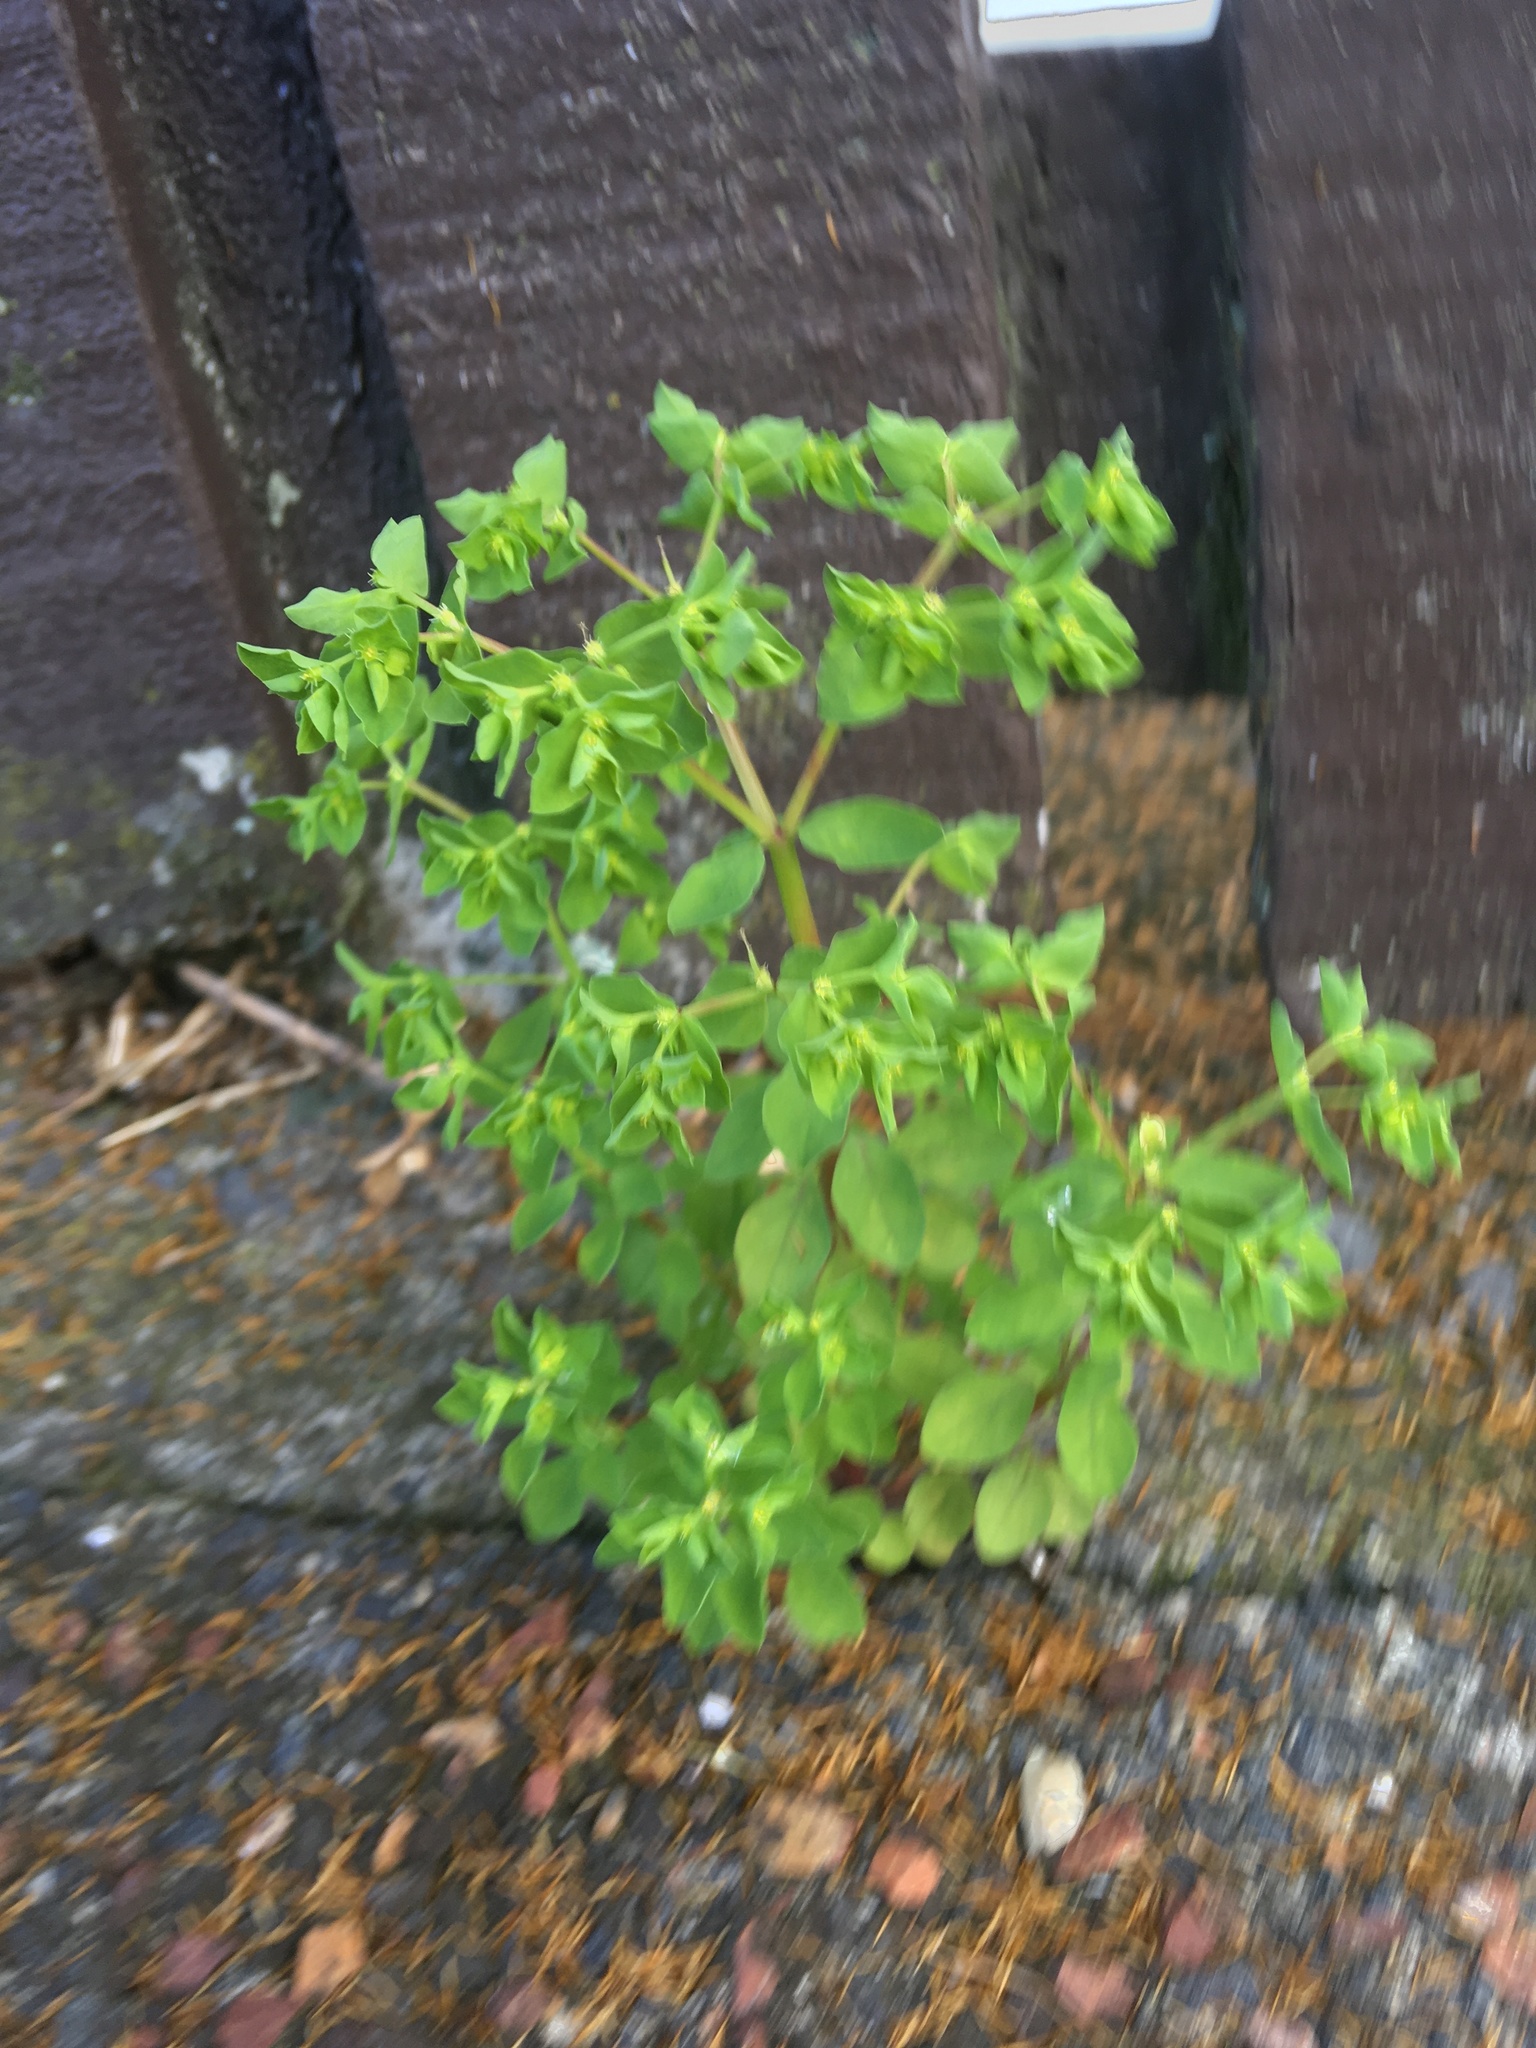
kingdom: Plantae
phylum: Tracheophyta
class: Magnoliopsida
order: Malpighiales
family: Euphorbiaceae
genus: Euphorbia
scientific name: Euphorbia peplus
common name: Petty spurge
